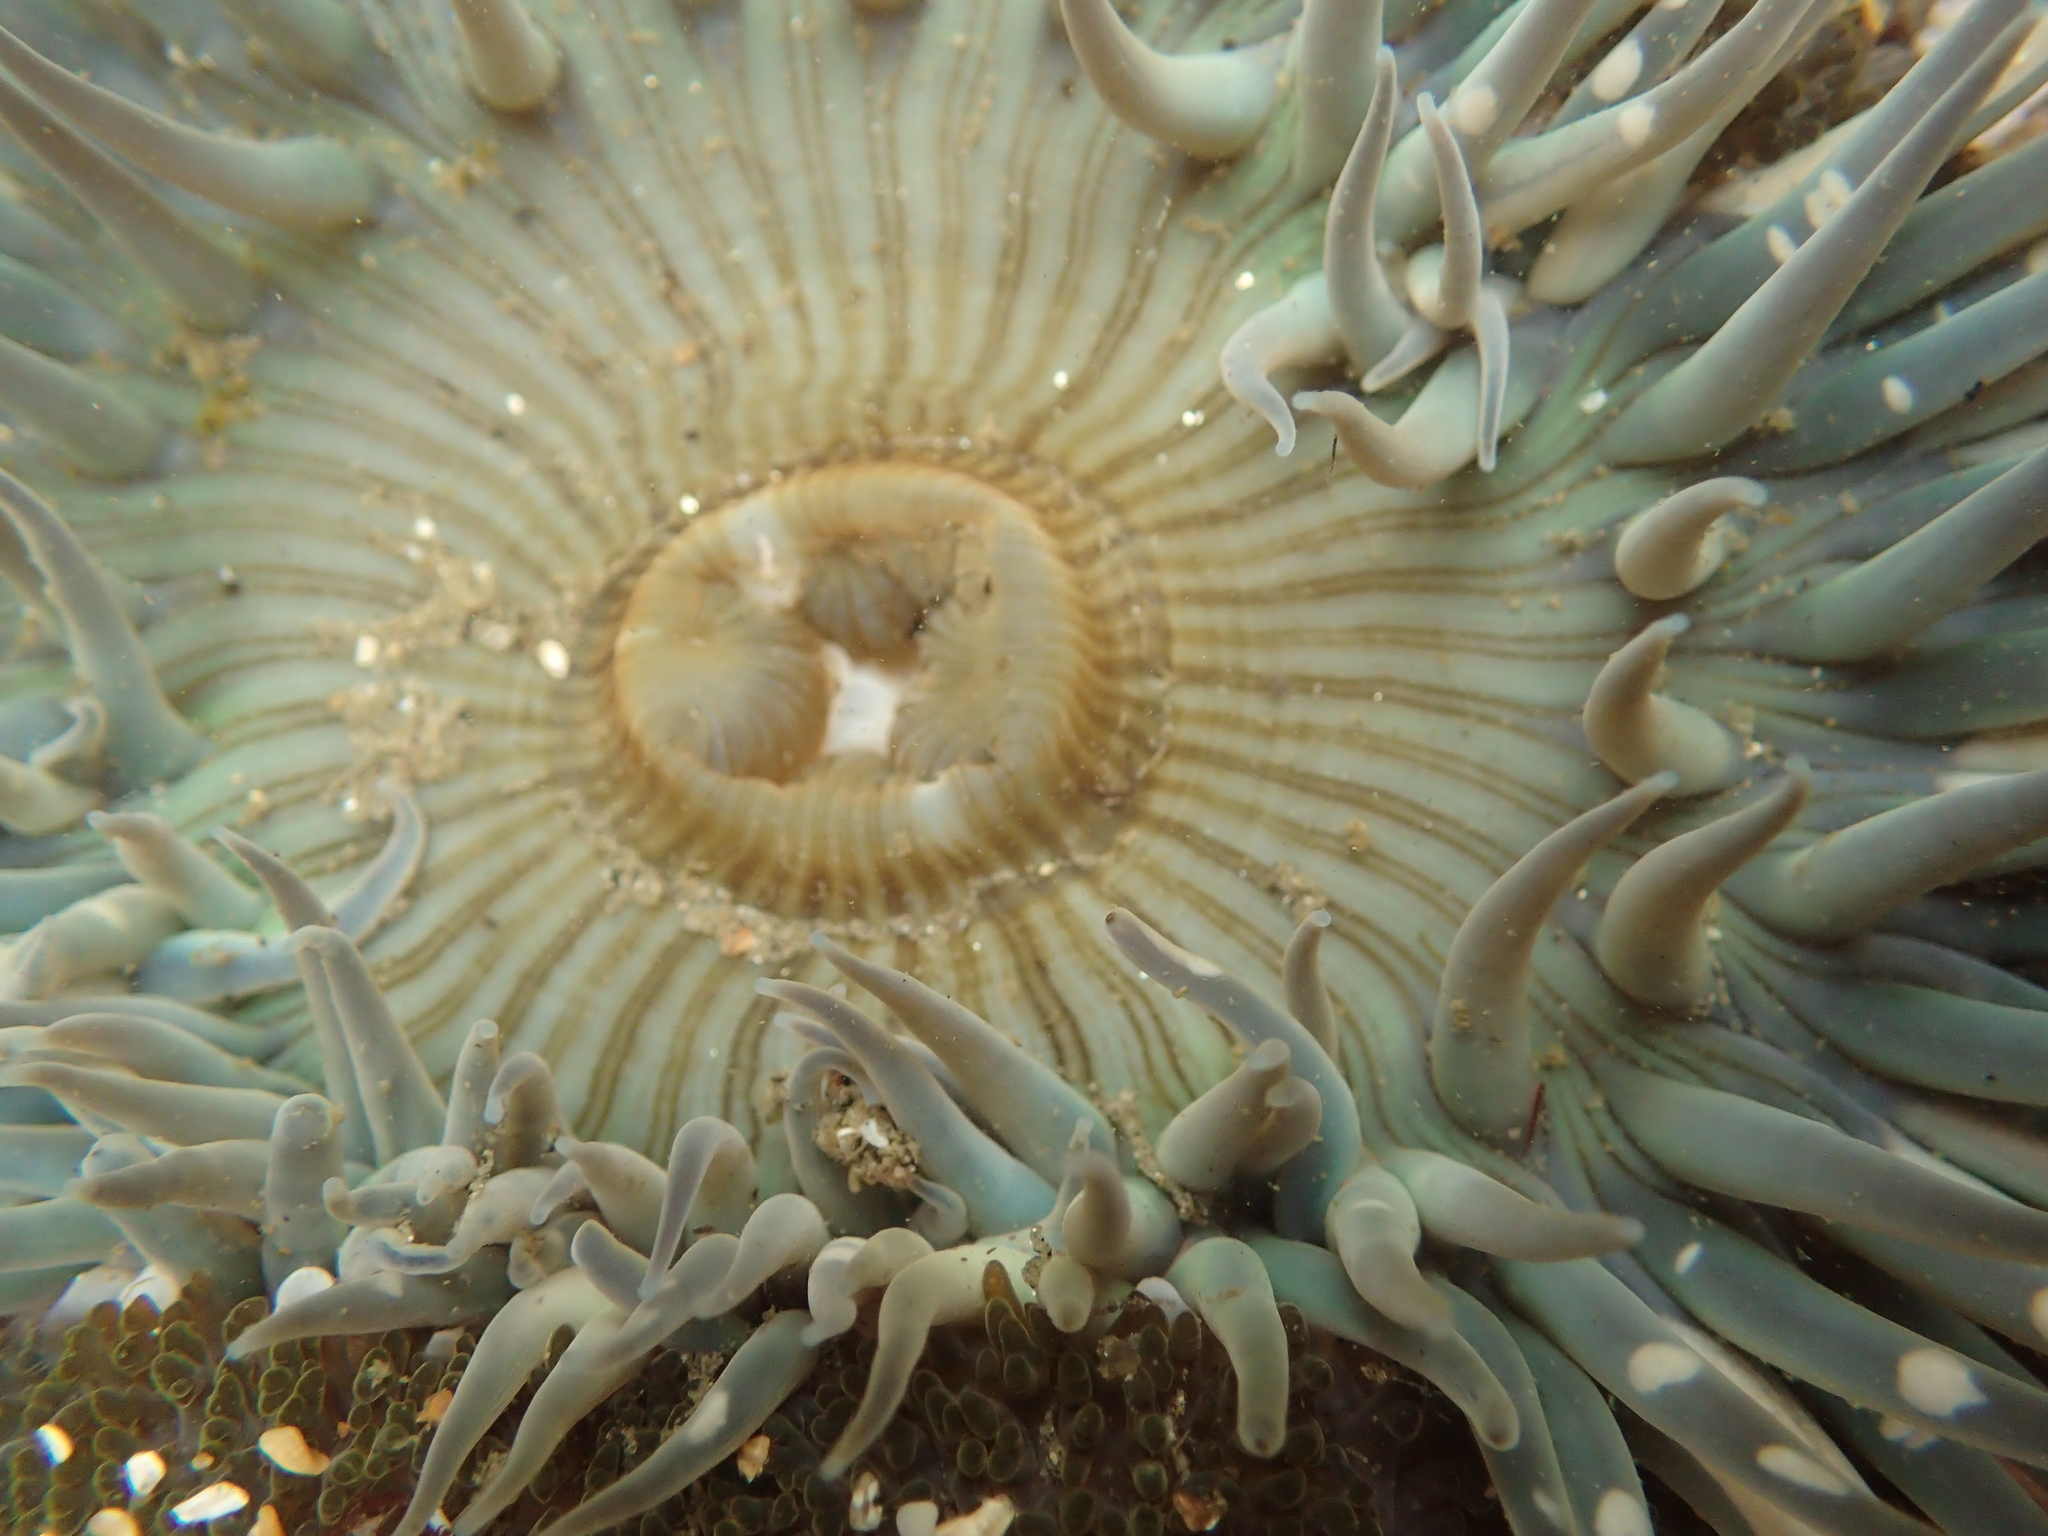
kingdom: Animalia
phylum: Cnidaria
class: Anthozoa
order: Actiniaria
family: Actiniidae
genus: Anthopleura
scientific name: Anthopleura sola
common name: Sun anemone
